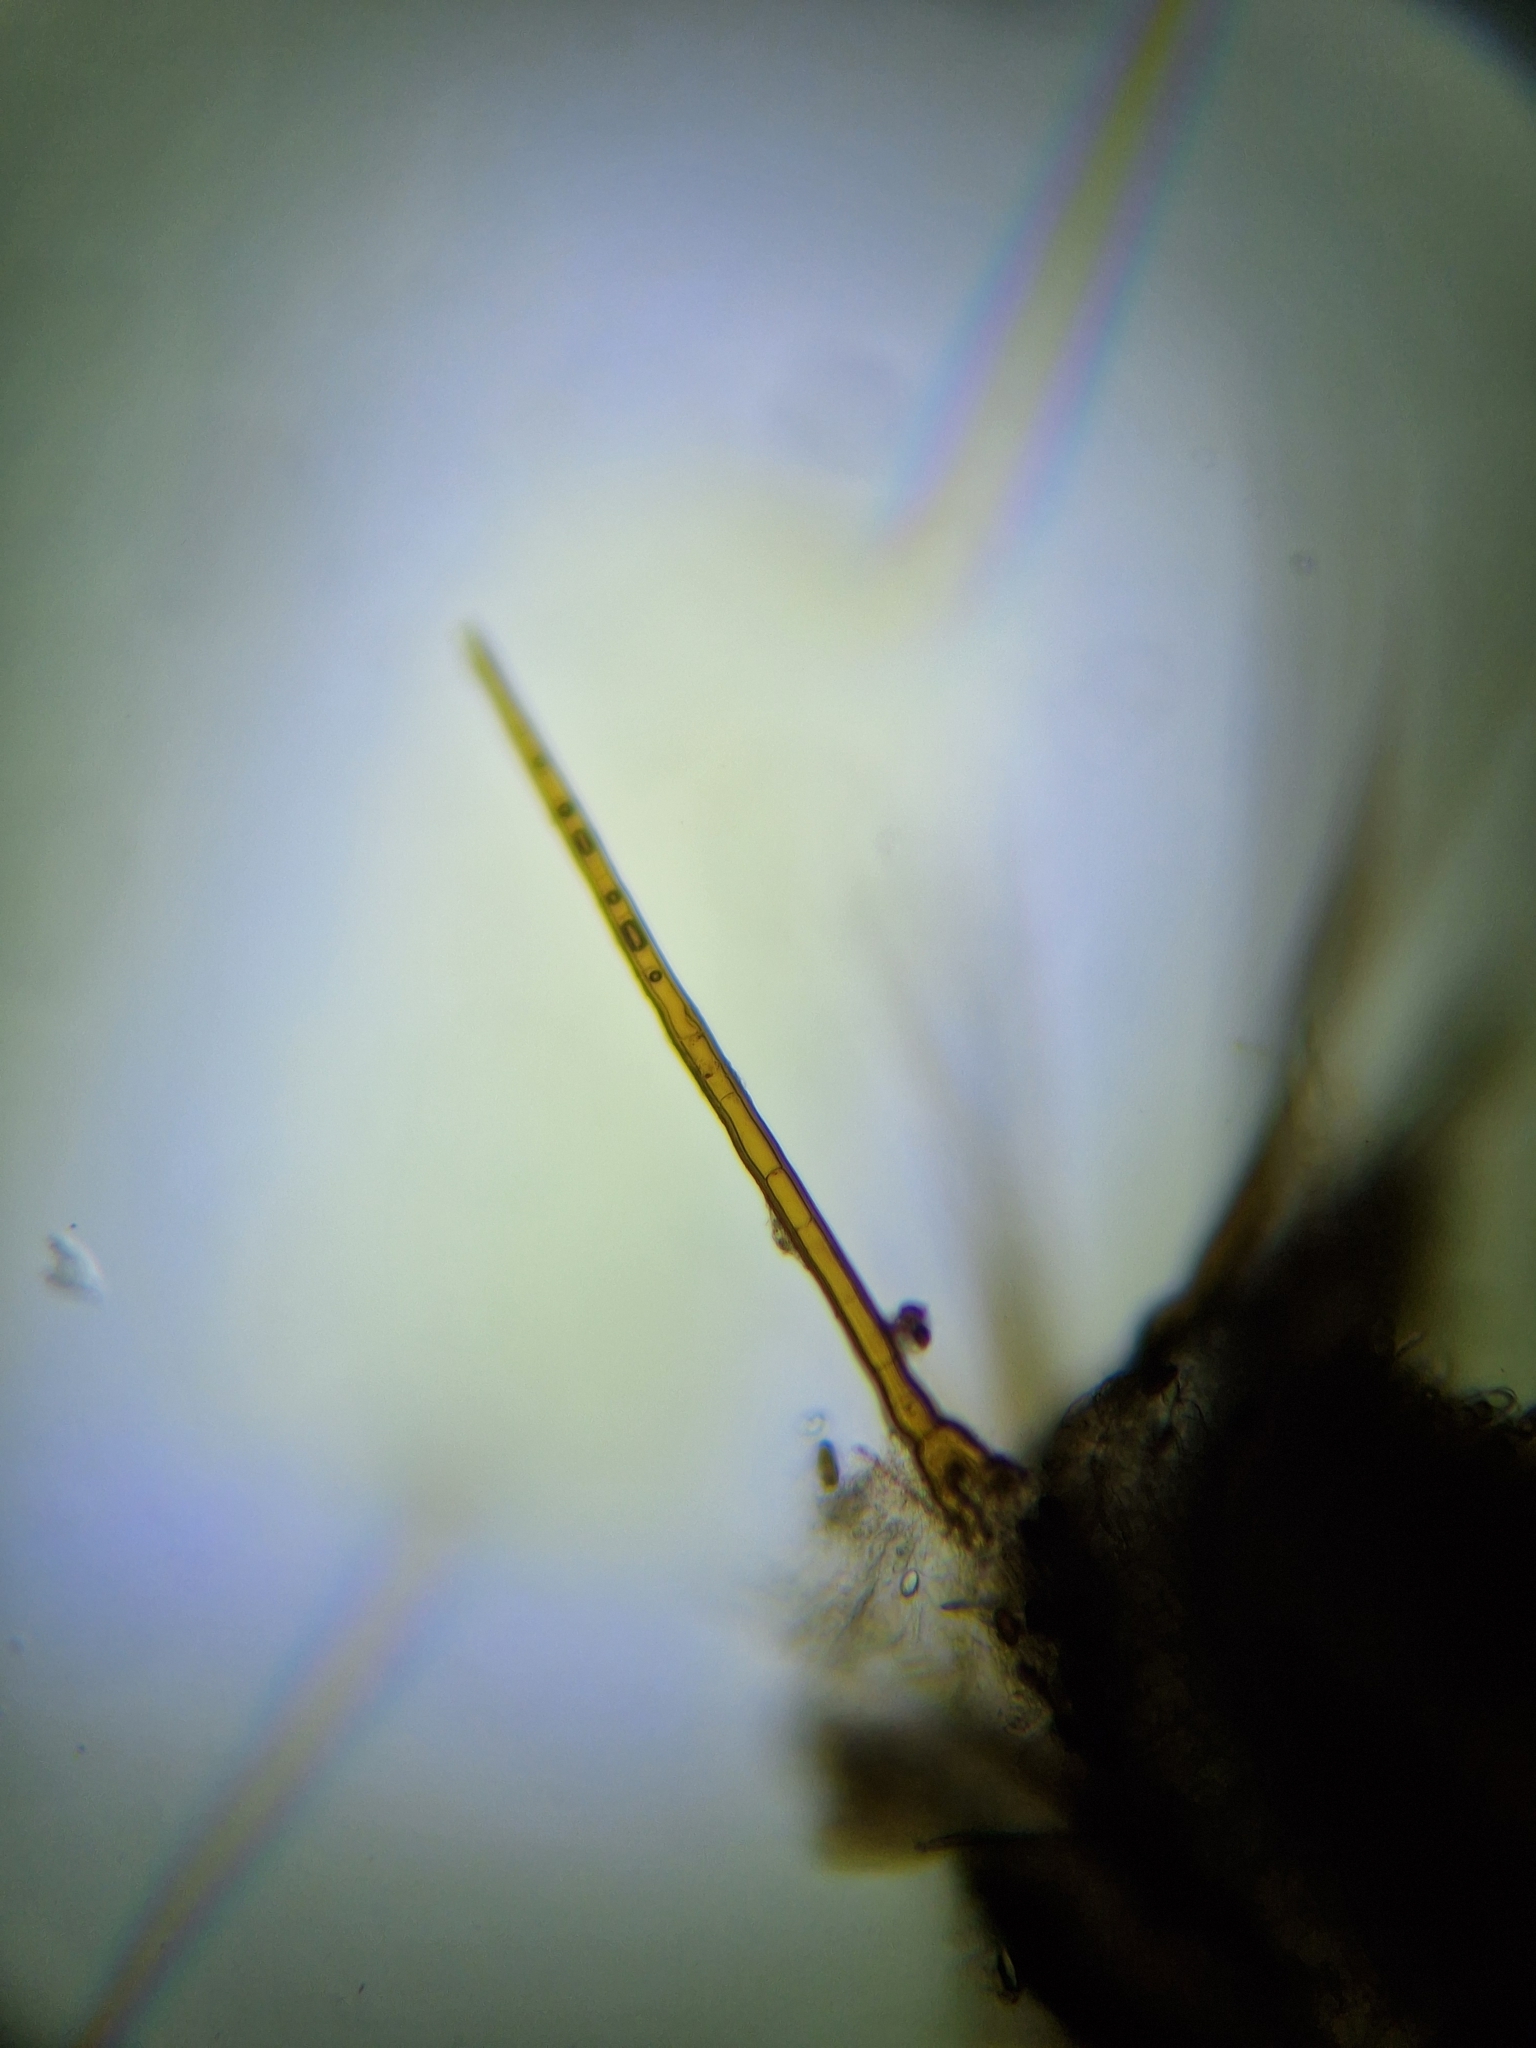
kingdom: Fungi
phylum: Ascomycota
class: Pezizomycetes
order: Pezizales
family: Pyronemataceae
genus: Cheilymenia
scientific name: Cheilymenia stercorea
